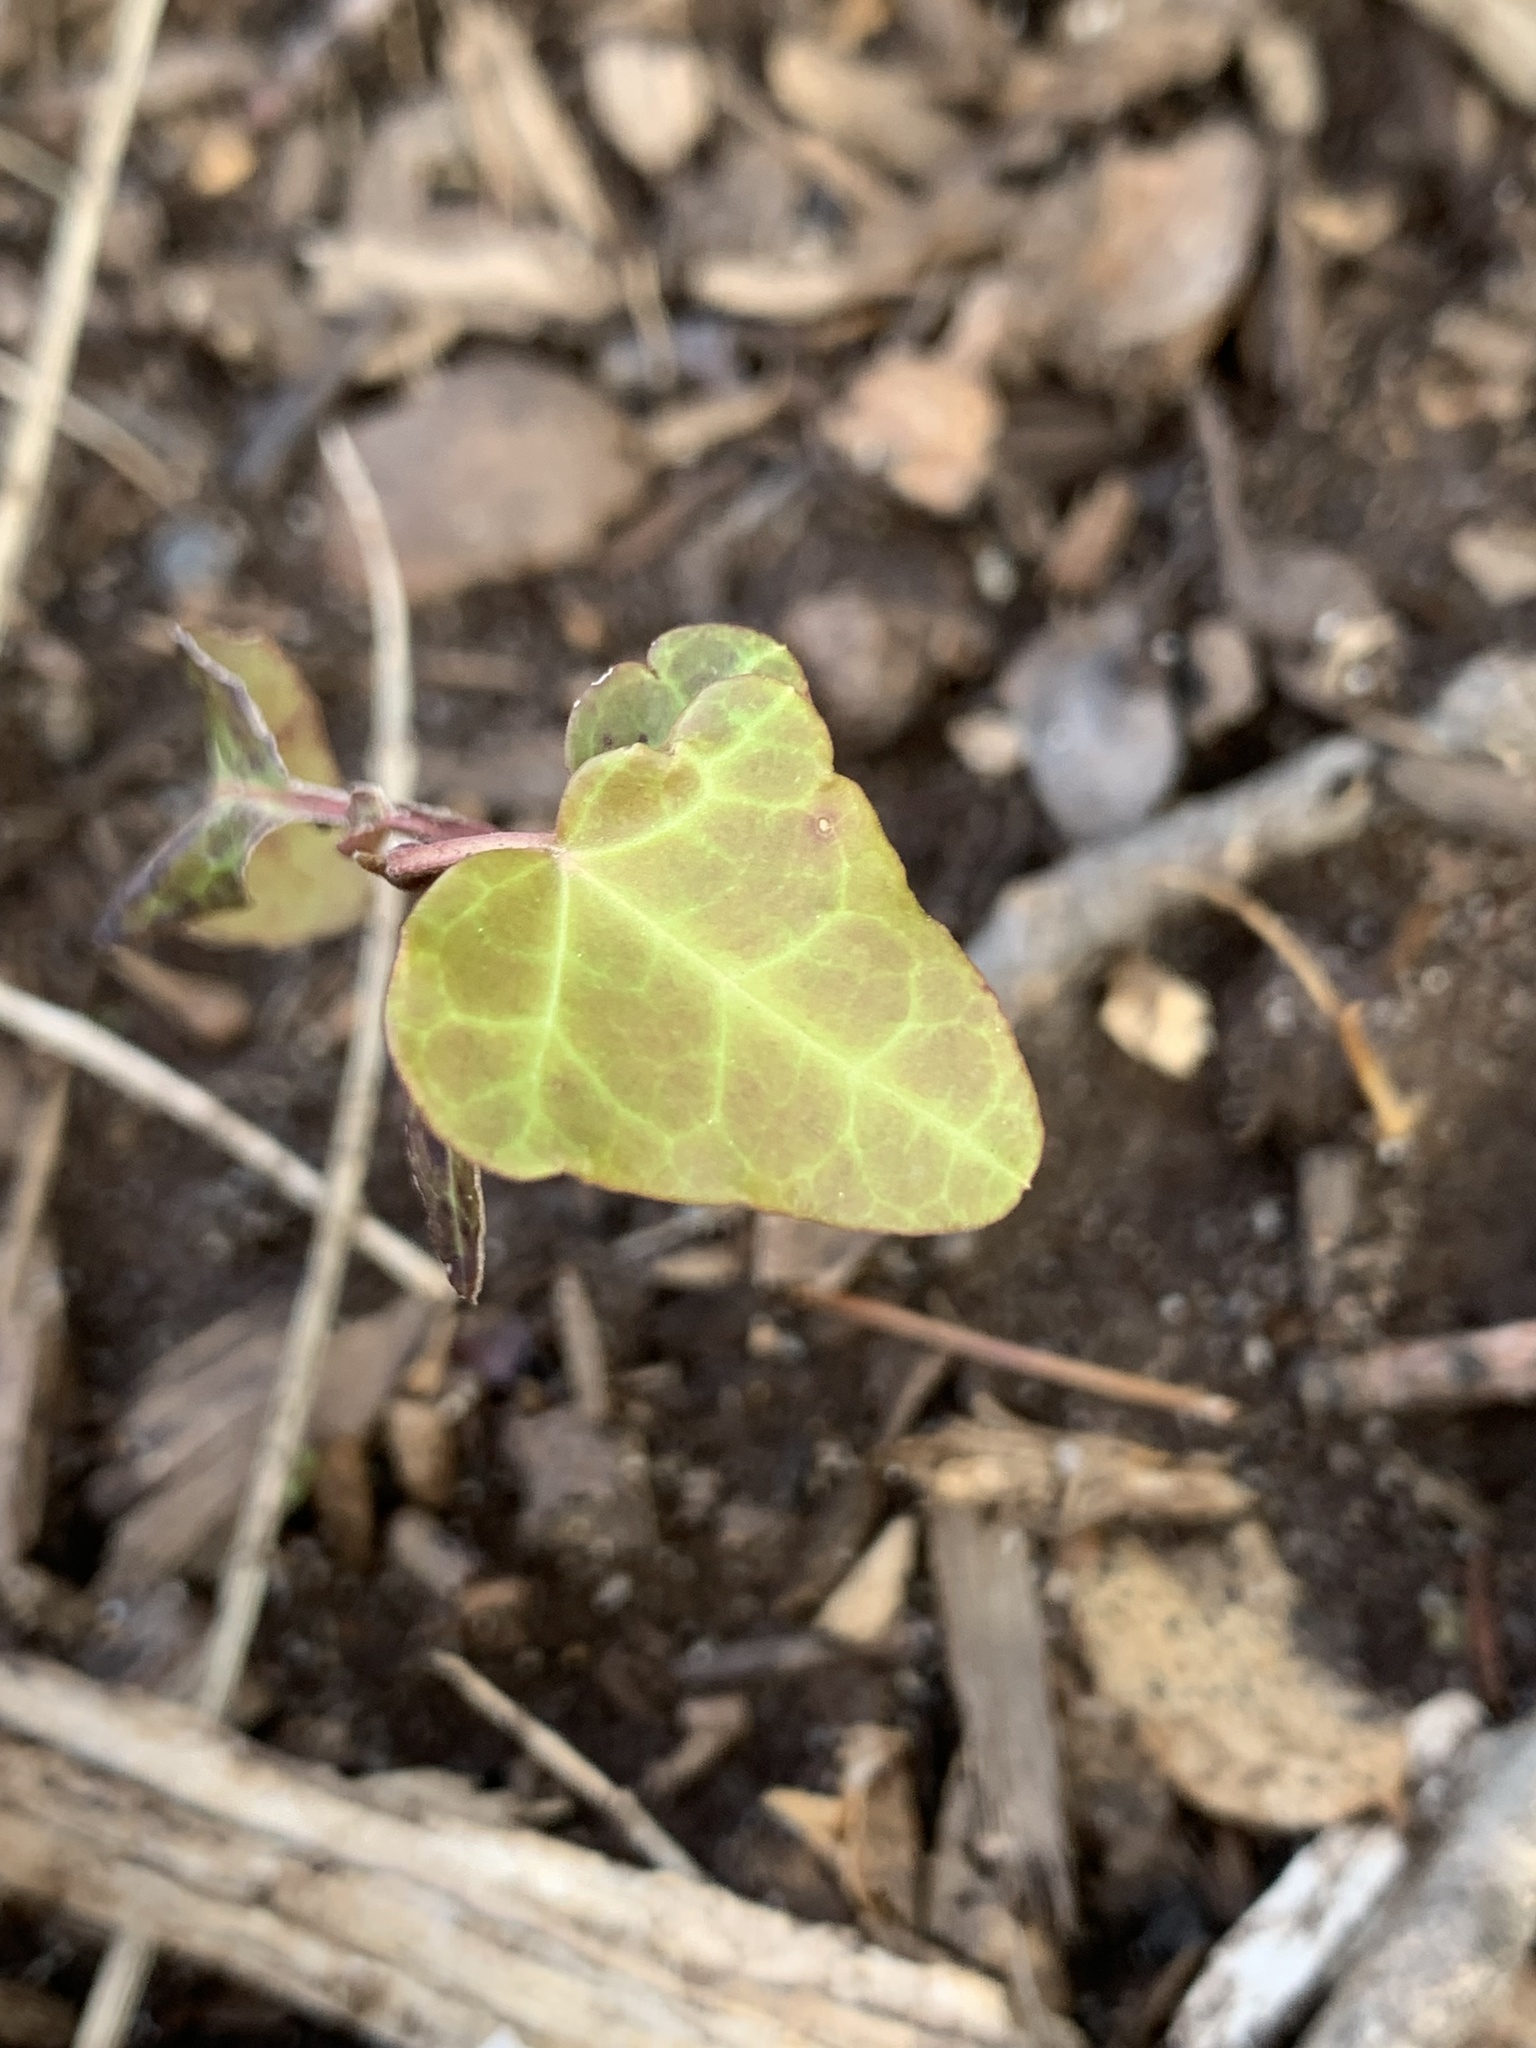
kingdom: Plantae
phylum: Tracheophyta
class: Magnoliopsida
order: Apiales
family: Araliaceae
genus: Hedera
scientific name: Hedera helix
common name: Ivy
